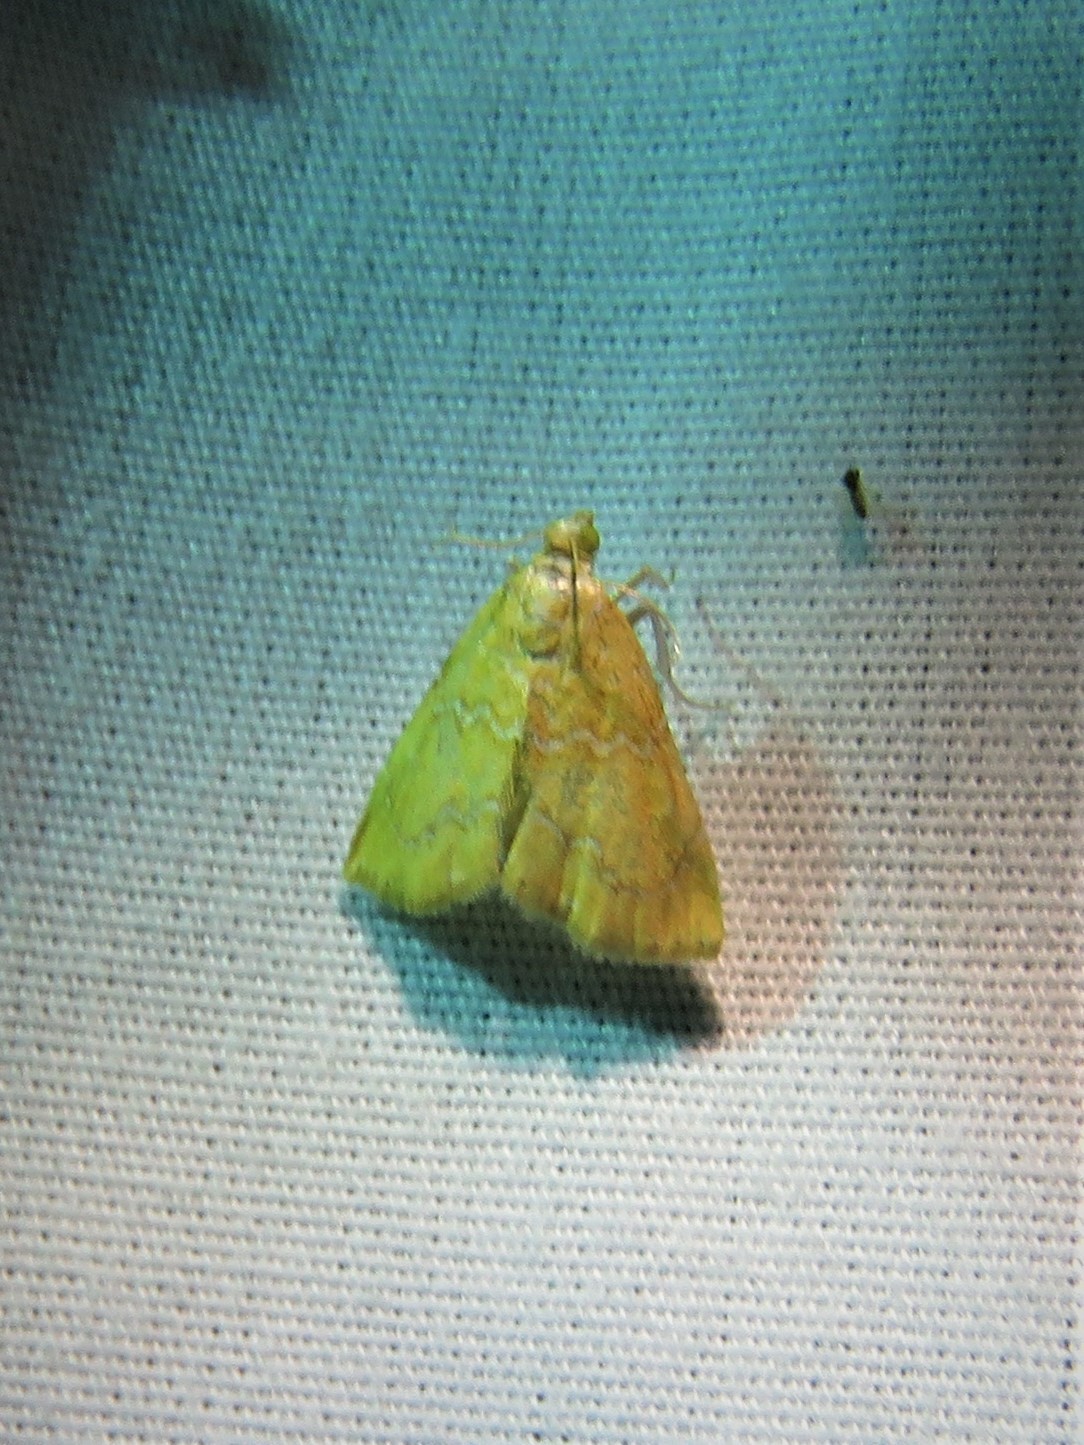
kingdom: Animalia
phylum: Arthropoda
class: Insecta
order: Lepidoptera
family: Crambidae
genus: Glaphyria
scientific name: Glaphyria sesquistrialis
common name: White-roped glaphyria
